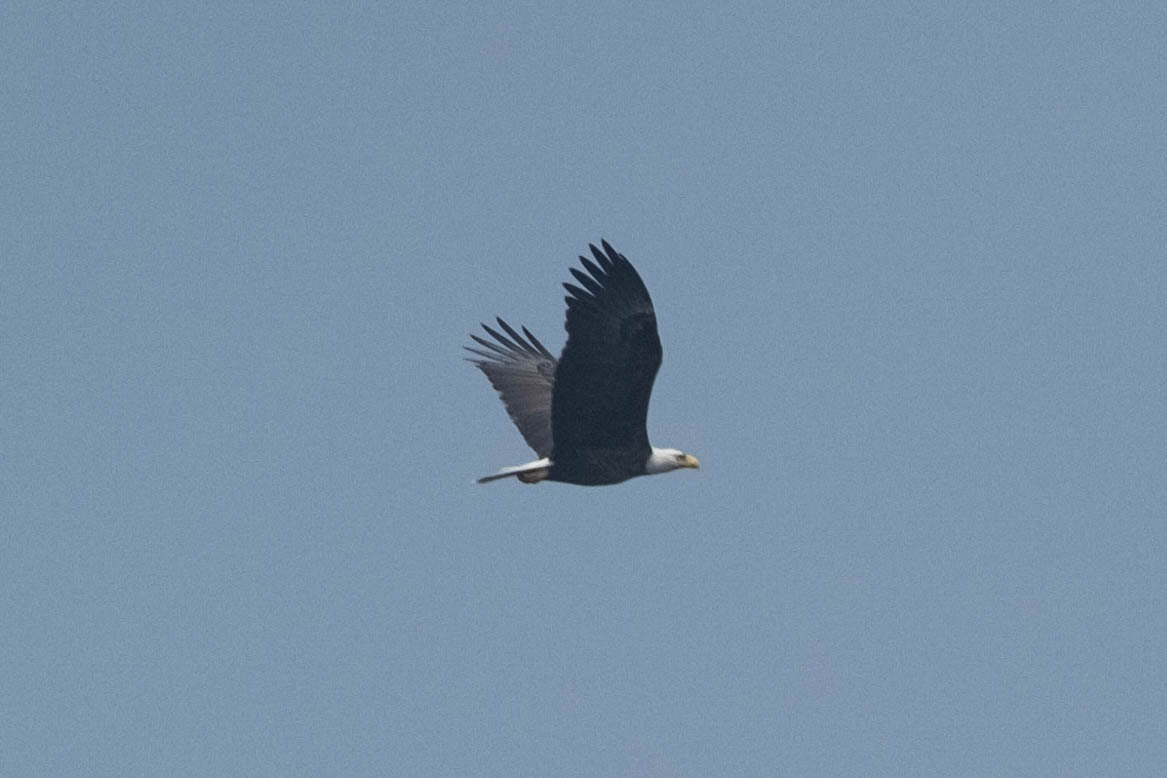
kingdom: Animalia
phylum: Chordata
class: Aves
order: Accipitriformes
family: Accipitridae
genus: Haliaeetus
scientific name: Haliaeetus leucocephalus
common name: Bald eagle
